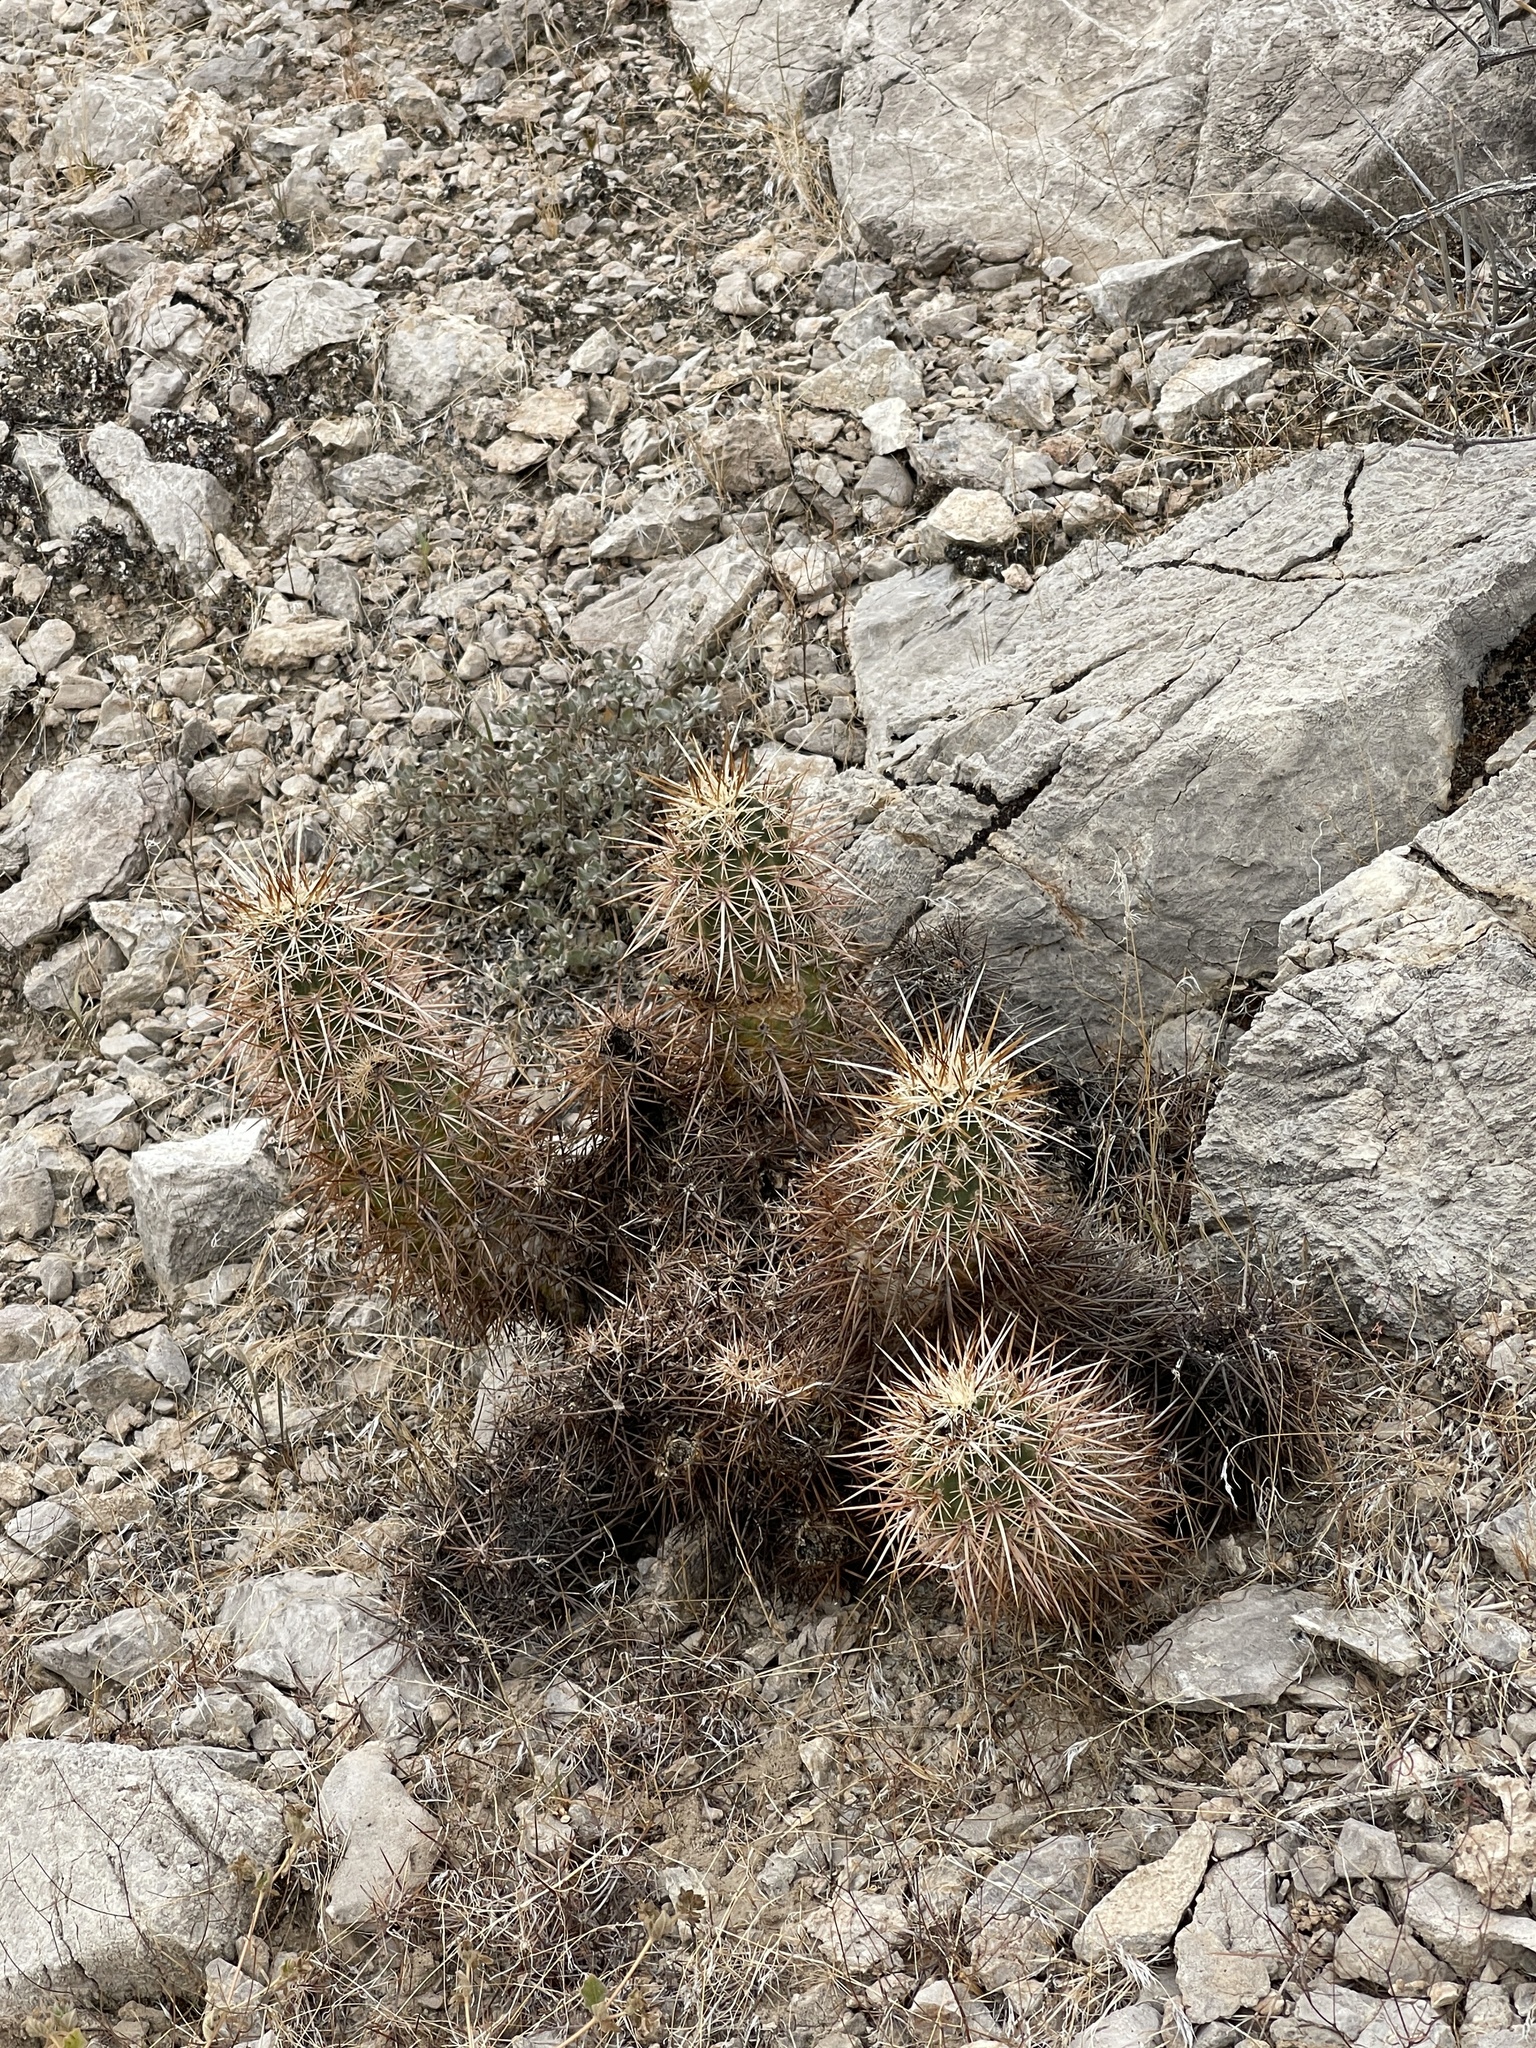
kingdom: Plantae
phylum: Tracheophyta
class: Magnoliopsida
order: Caryophyllales
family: Cactaceae
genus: Echinocereus
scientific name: Echinocereus engelmannii
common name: Engelmann's hedgehog cactus
